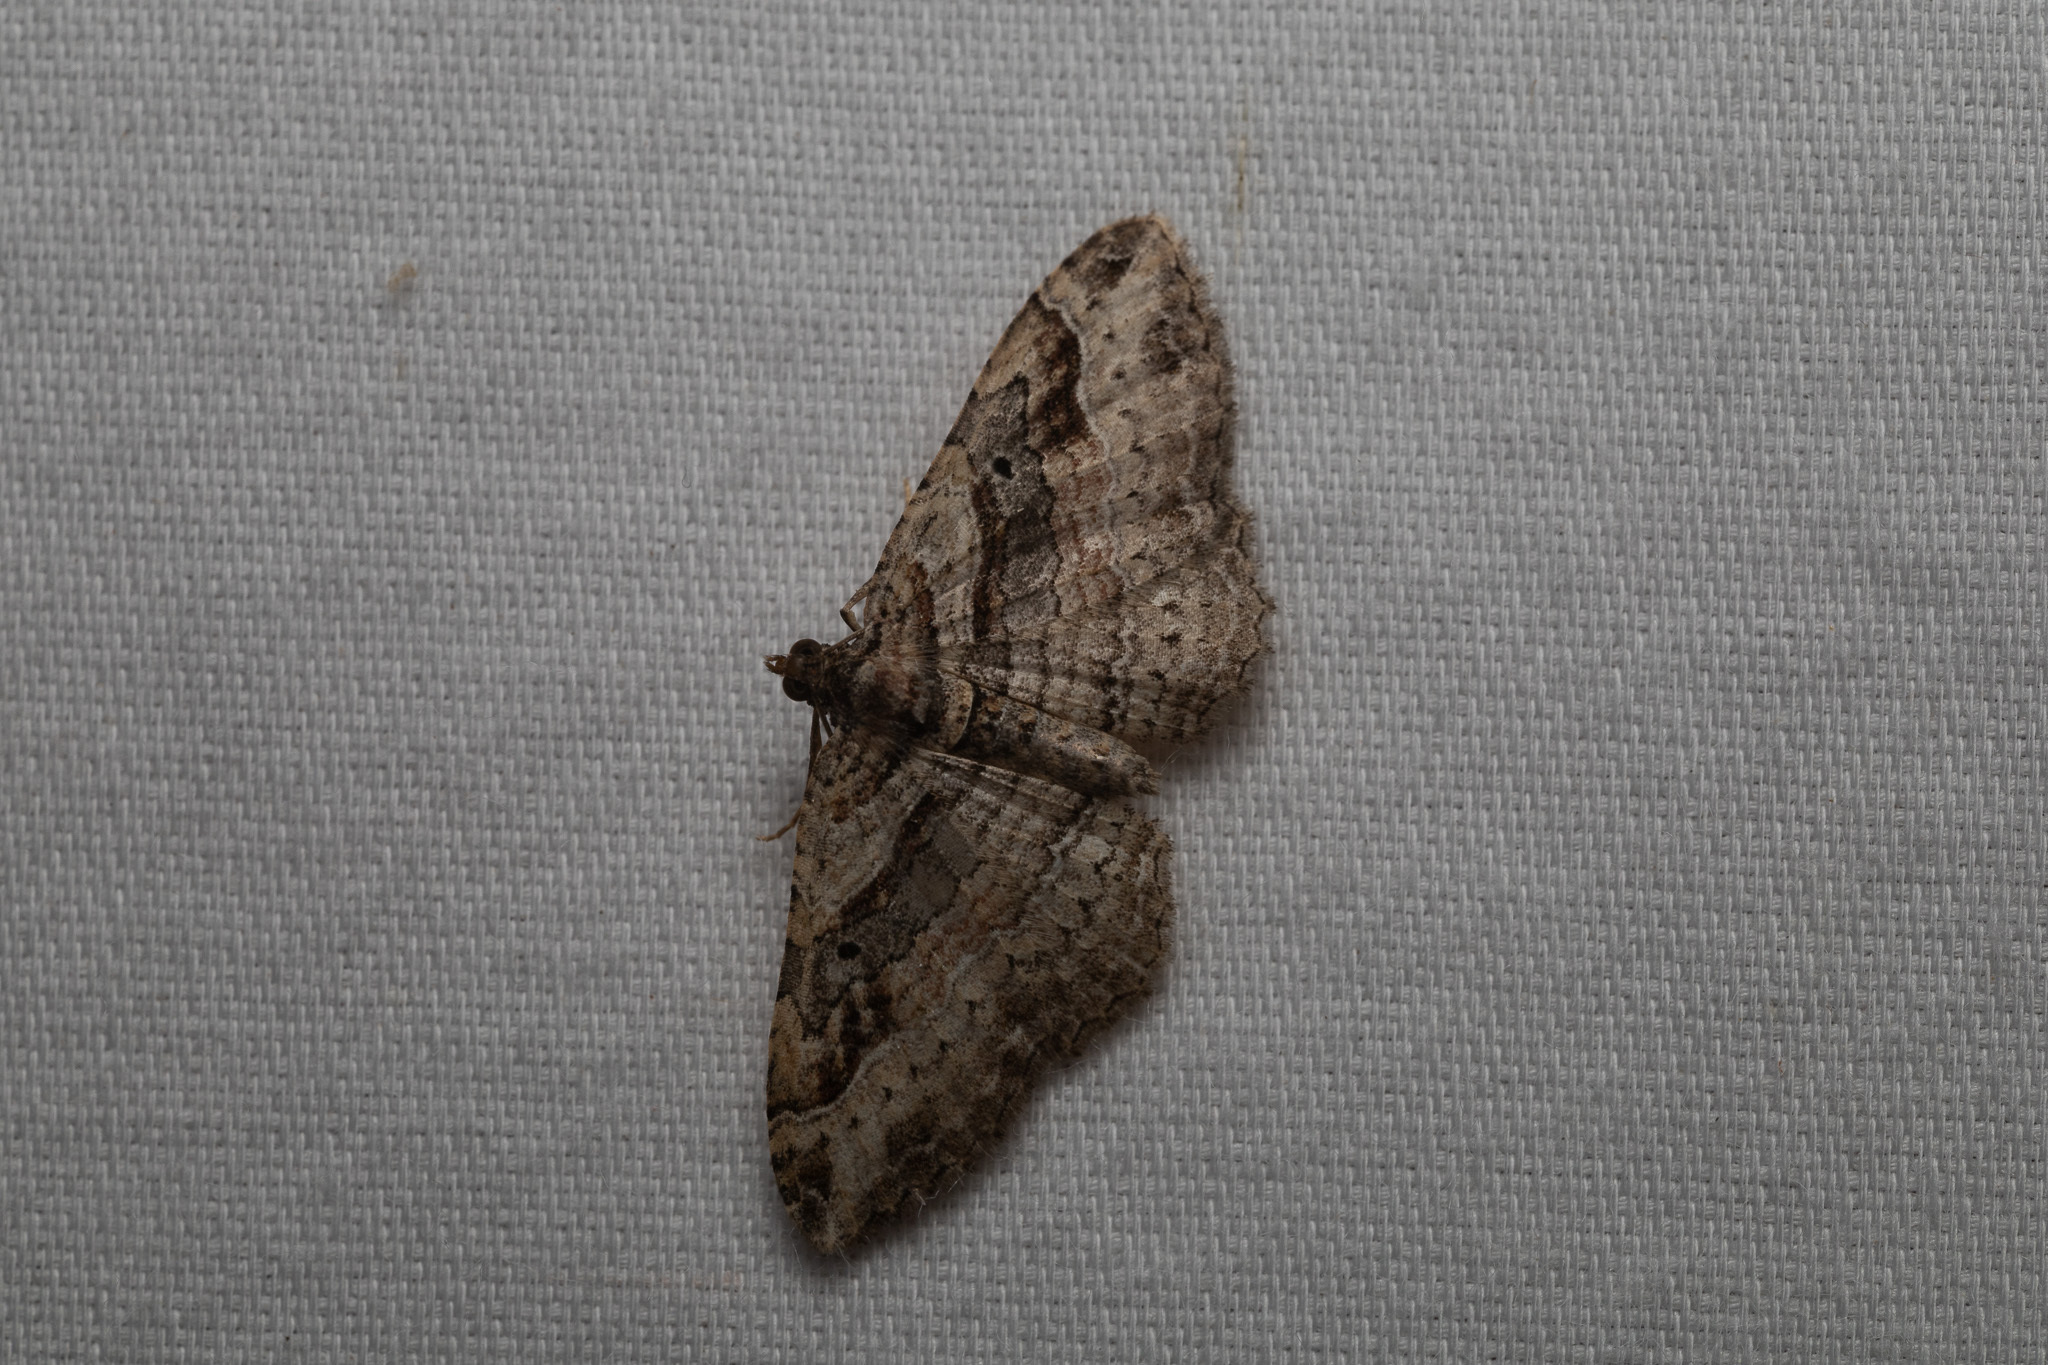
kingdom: Animalia
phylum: Arthropoda
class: Insecta
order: Lepidoptera
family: Geometridae
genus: Costaconvexa
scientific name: Costaconvexa centrostrigaria
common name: Bent-line carpet
